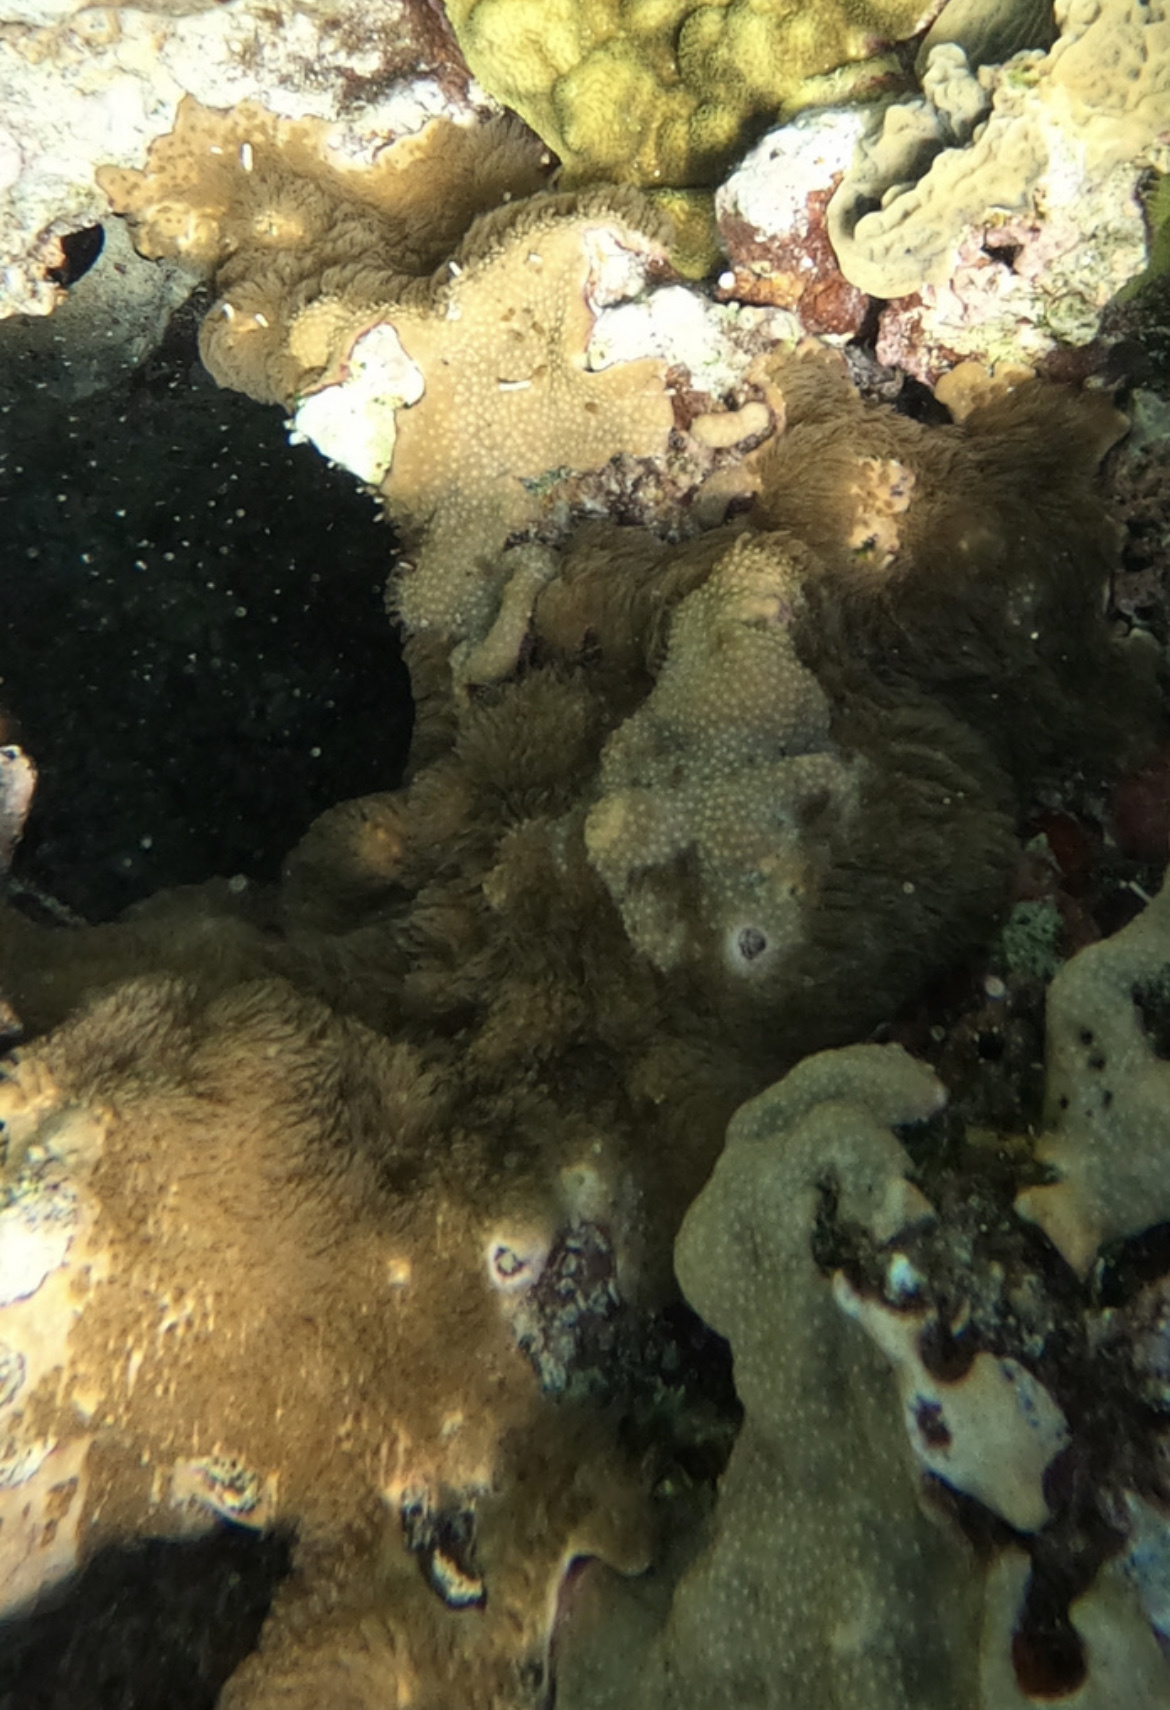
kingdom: Animalia
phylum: Cnidaria
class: Anthozoa
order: Scleralcyonacea
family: Erythropodiidae
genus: Erythropodium
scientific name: Erythropodium caribaeorum
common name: Encrusting gorgonian
